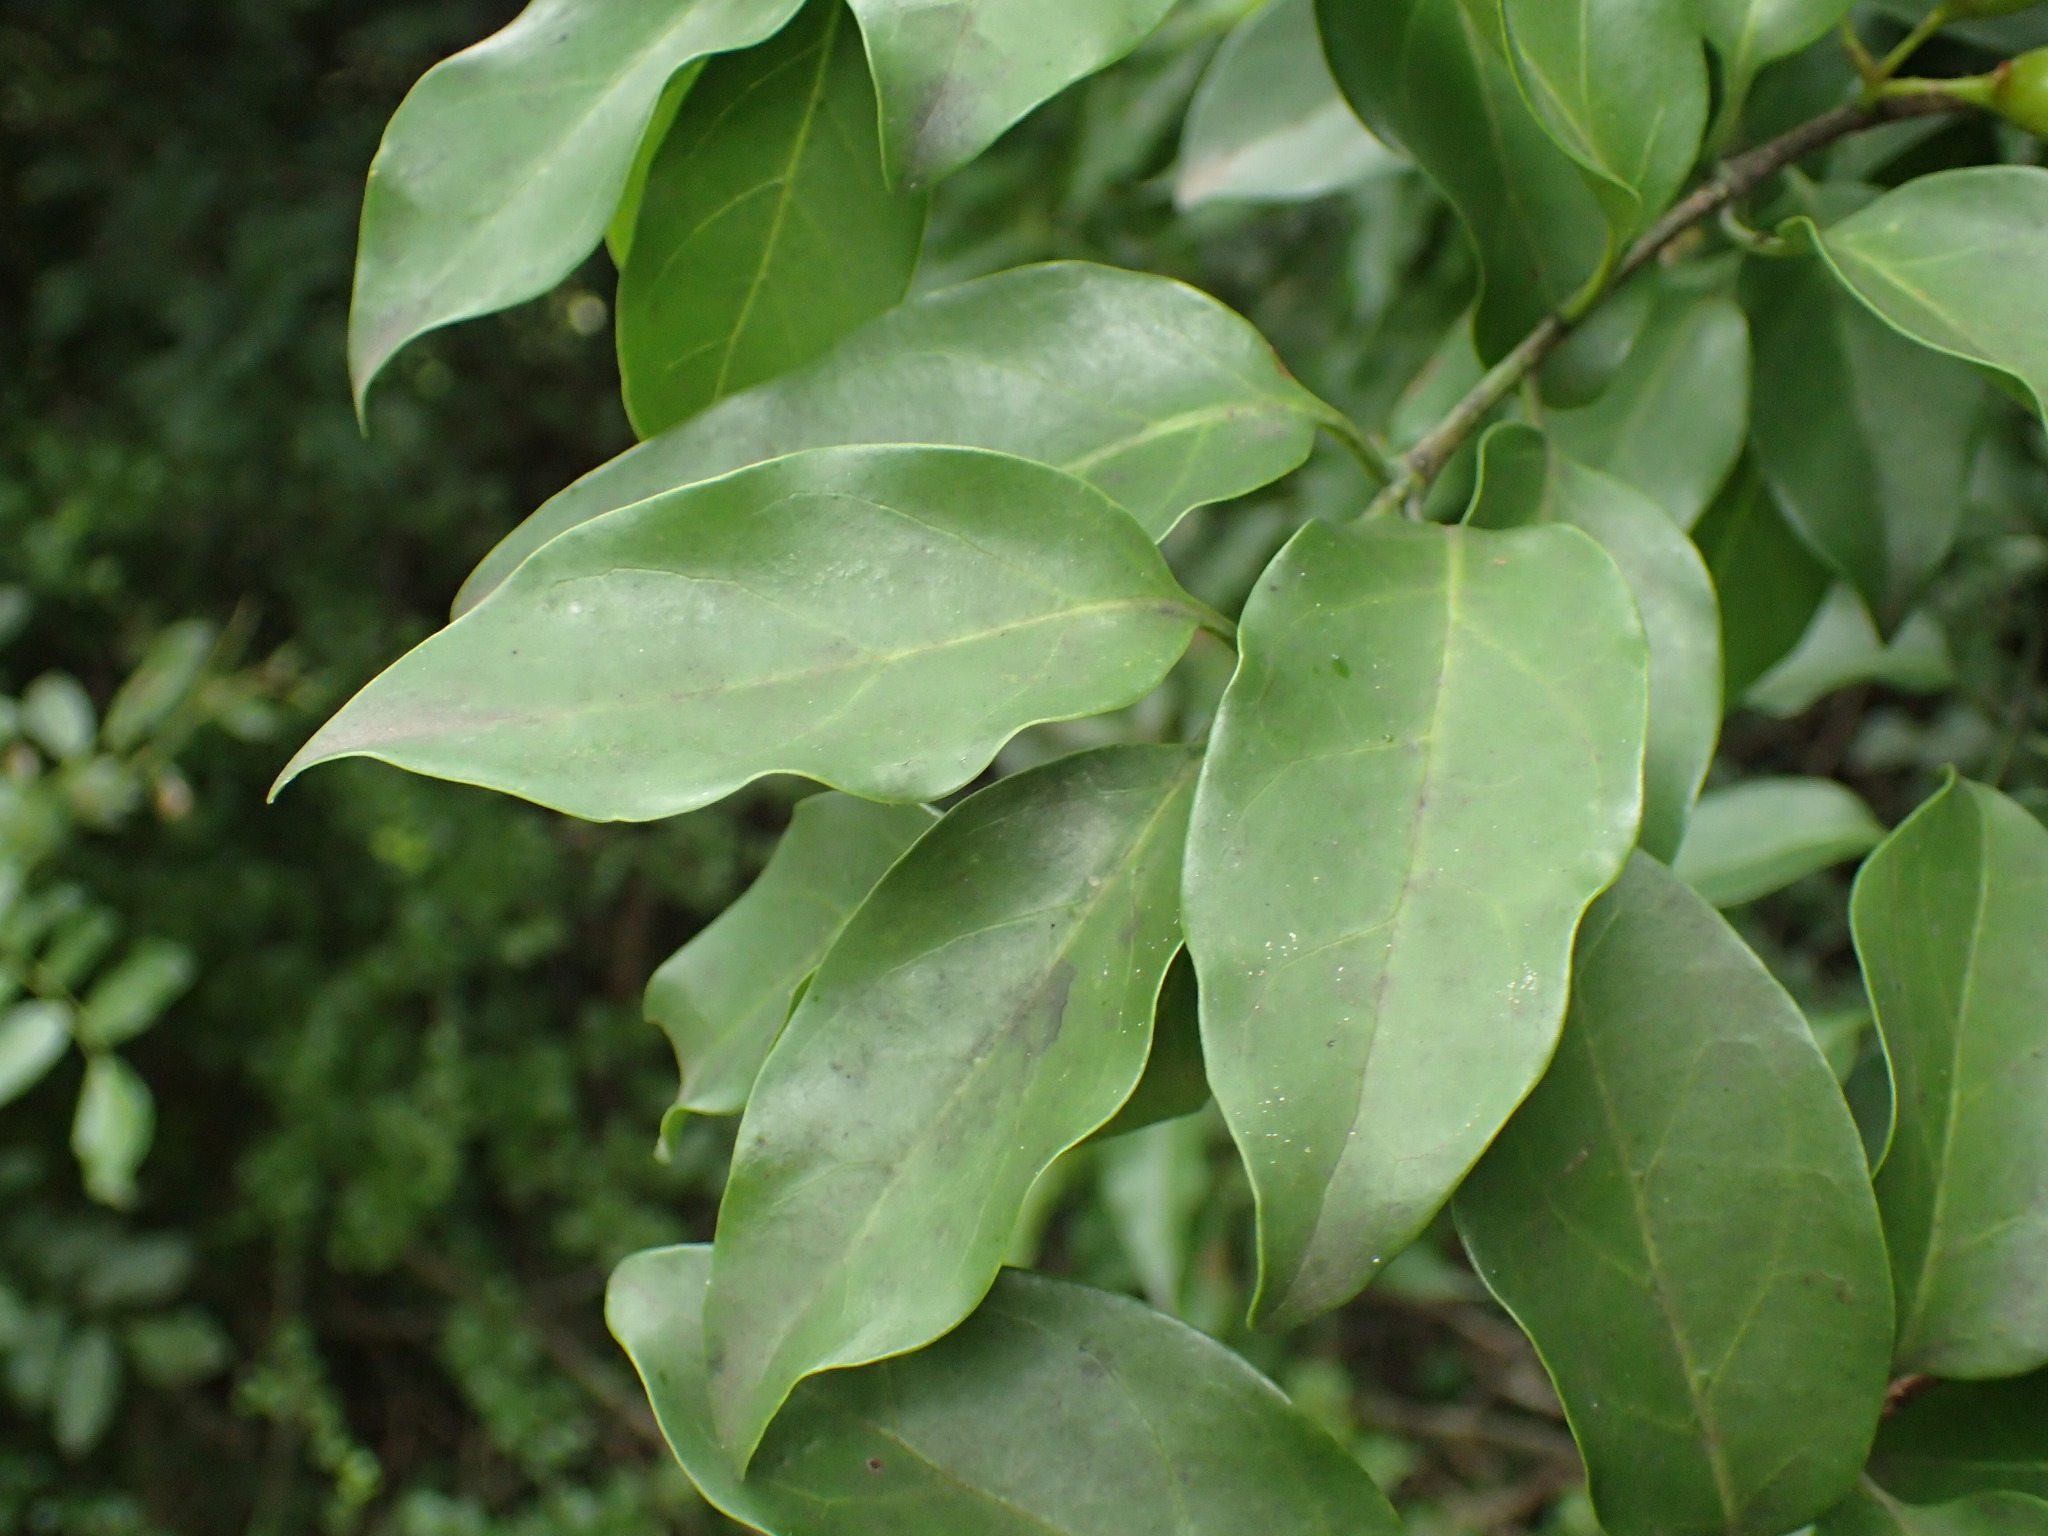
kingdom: Plantae
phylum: Tracheophyta
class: Magnoliopsida
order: Gentianales
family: Rubiaceae
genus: Canthium
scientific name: Canthium inerme
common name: Unarmed turkey-berry
